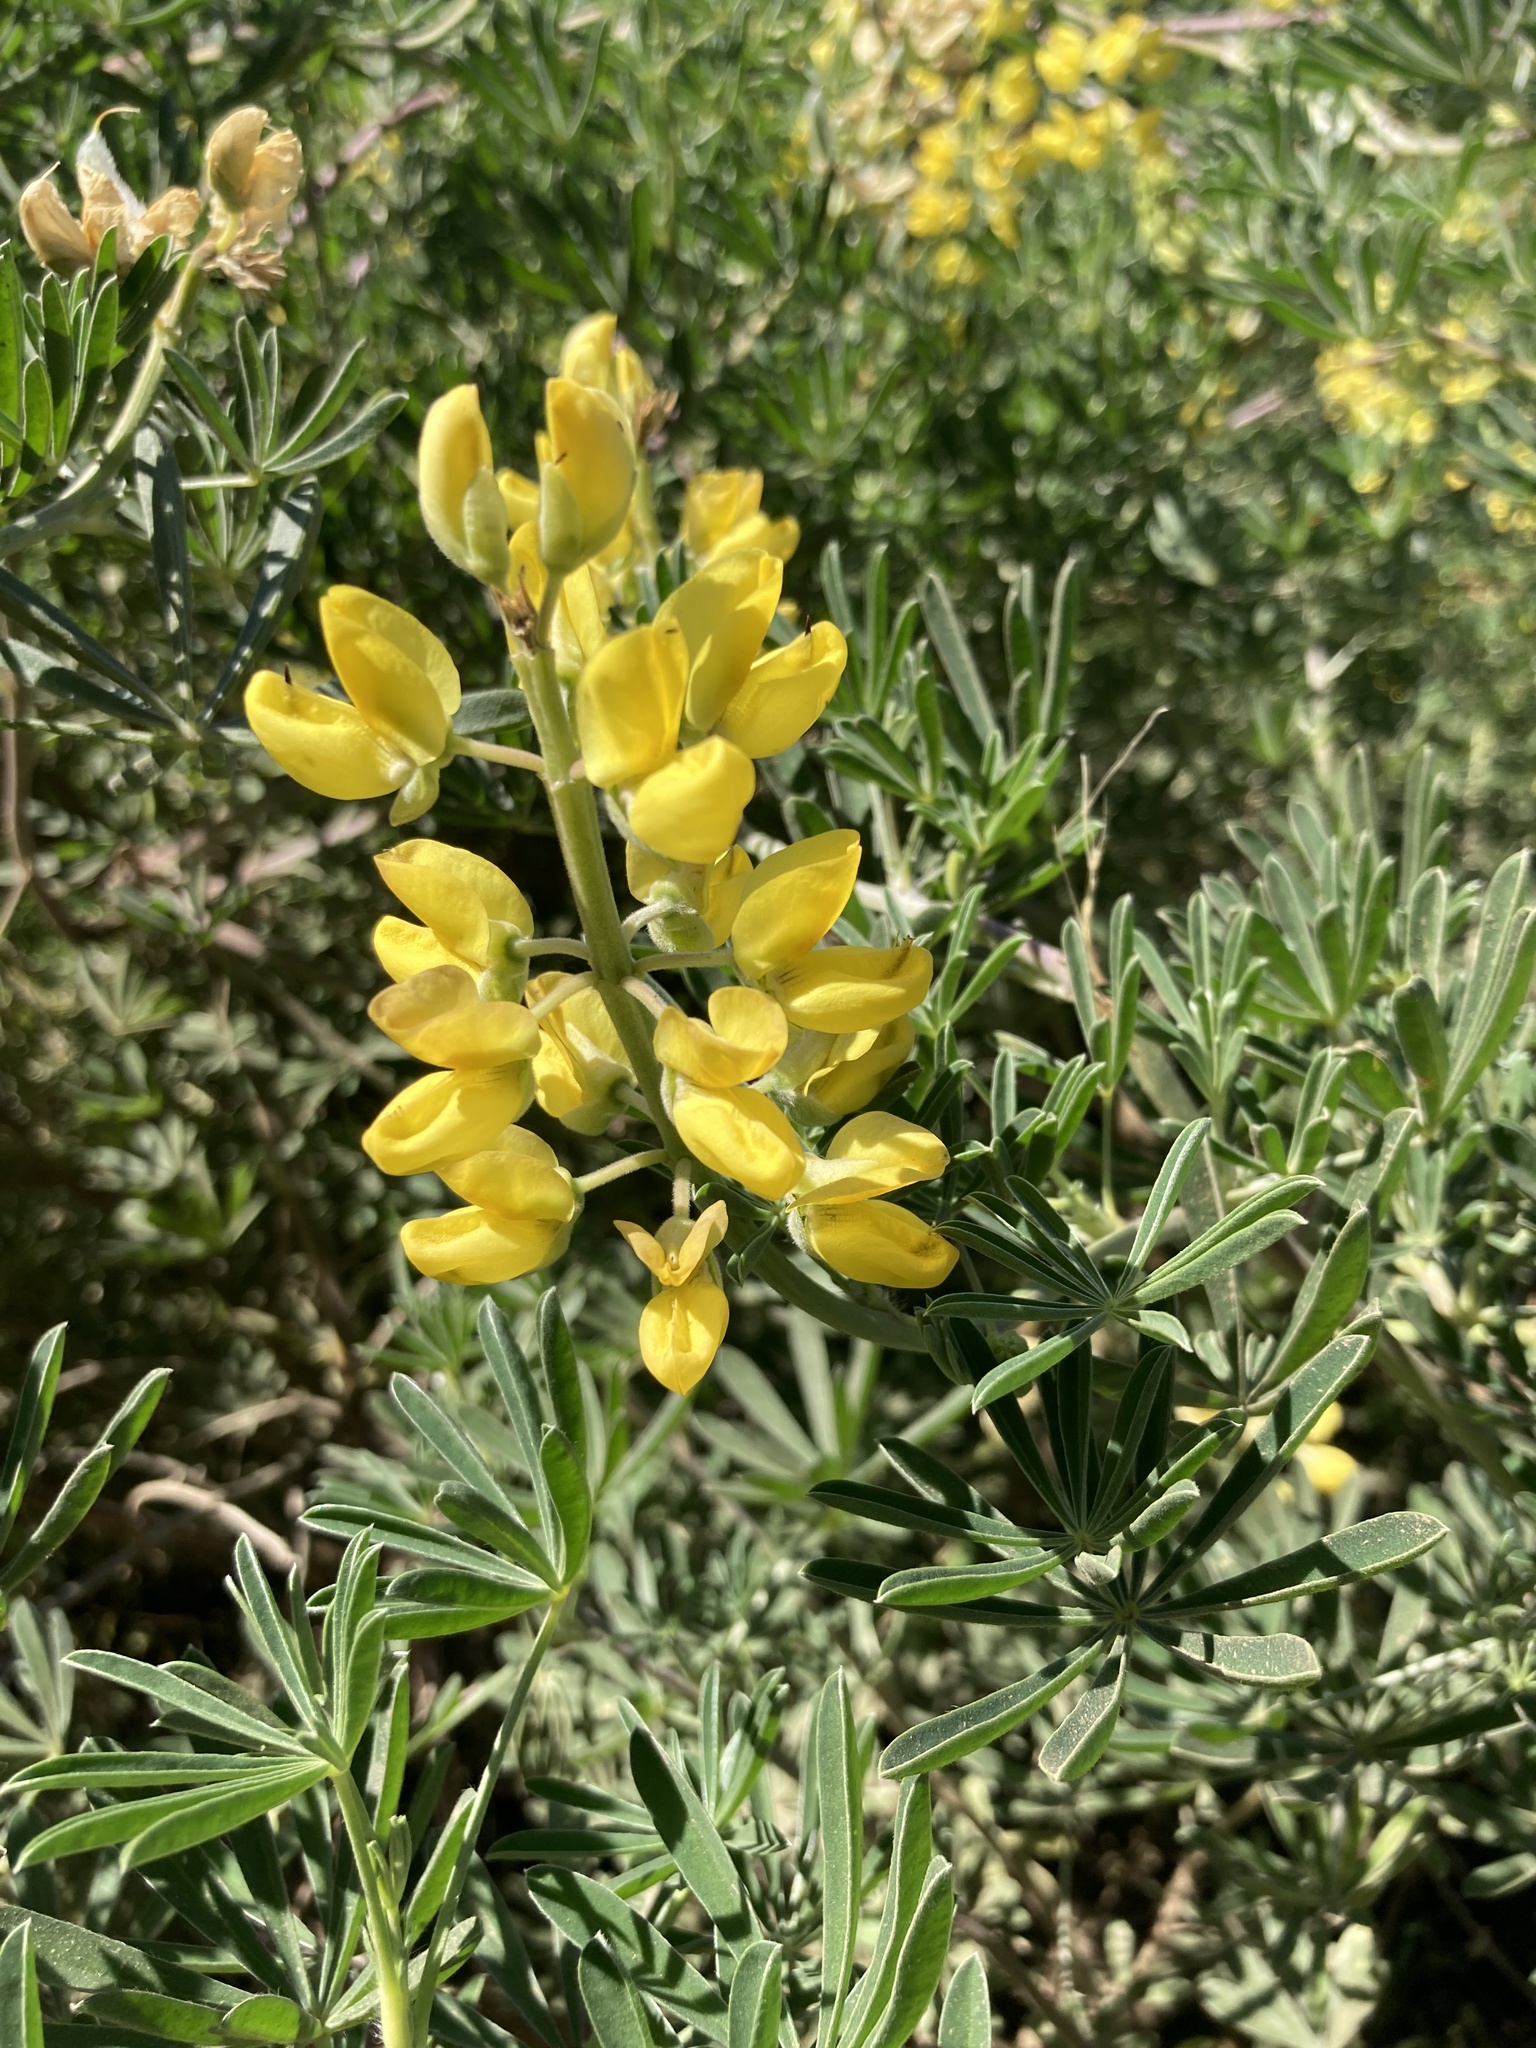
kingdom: Plantae
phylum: Tracheophyta
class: Magnoliopsida
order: Fabales
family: Fabaceae
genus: Lupinus
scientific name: Lupinus arboreus
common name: Yellow bush lupine
